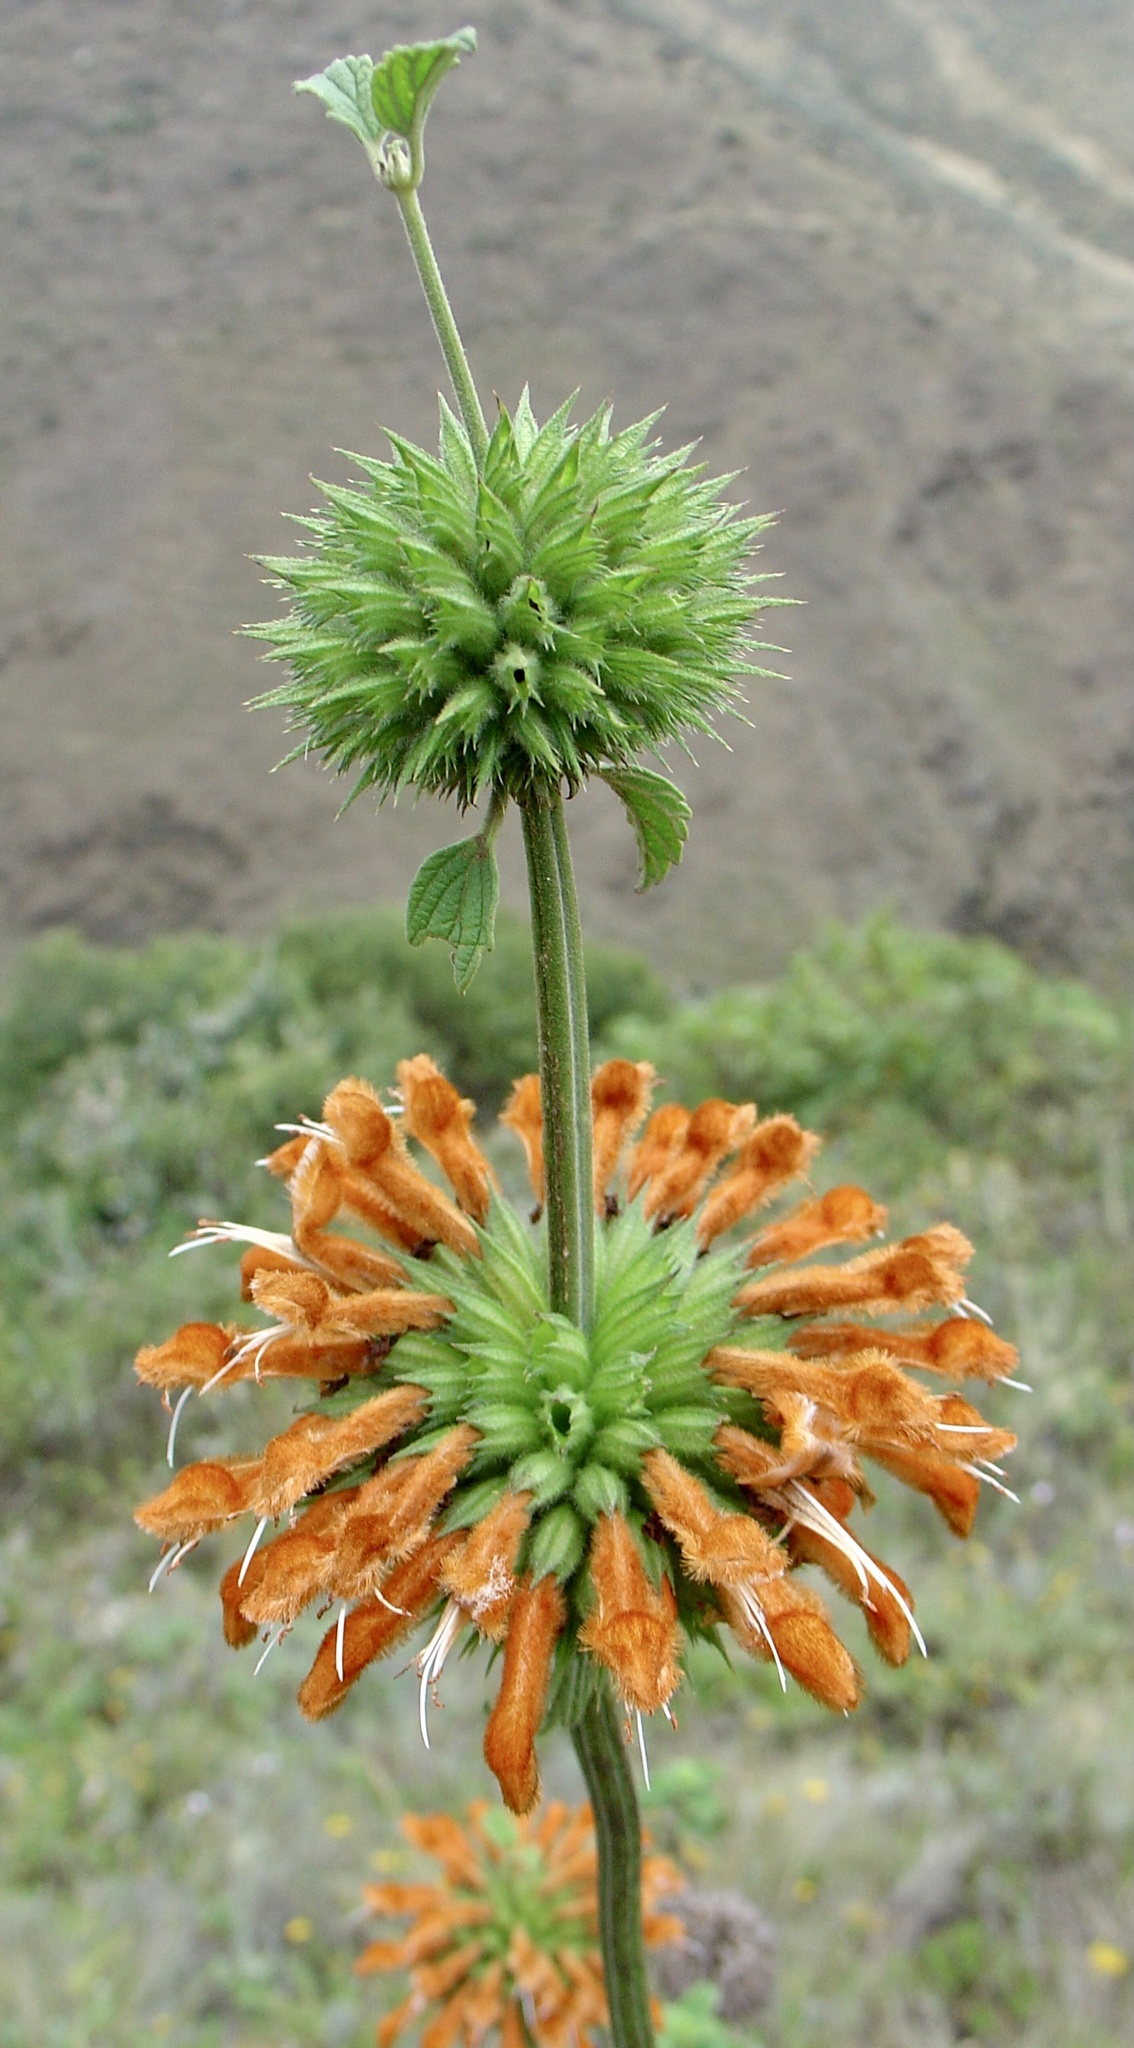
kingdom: Plantae
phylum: Tracheophyta
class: Magnoliopsida
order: Lamiales
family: Lamiaceae
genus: Leonotis
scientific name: Leonotis nepetifolia
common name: Christmas candlestick
